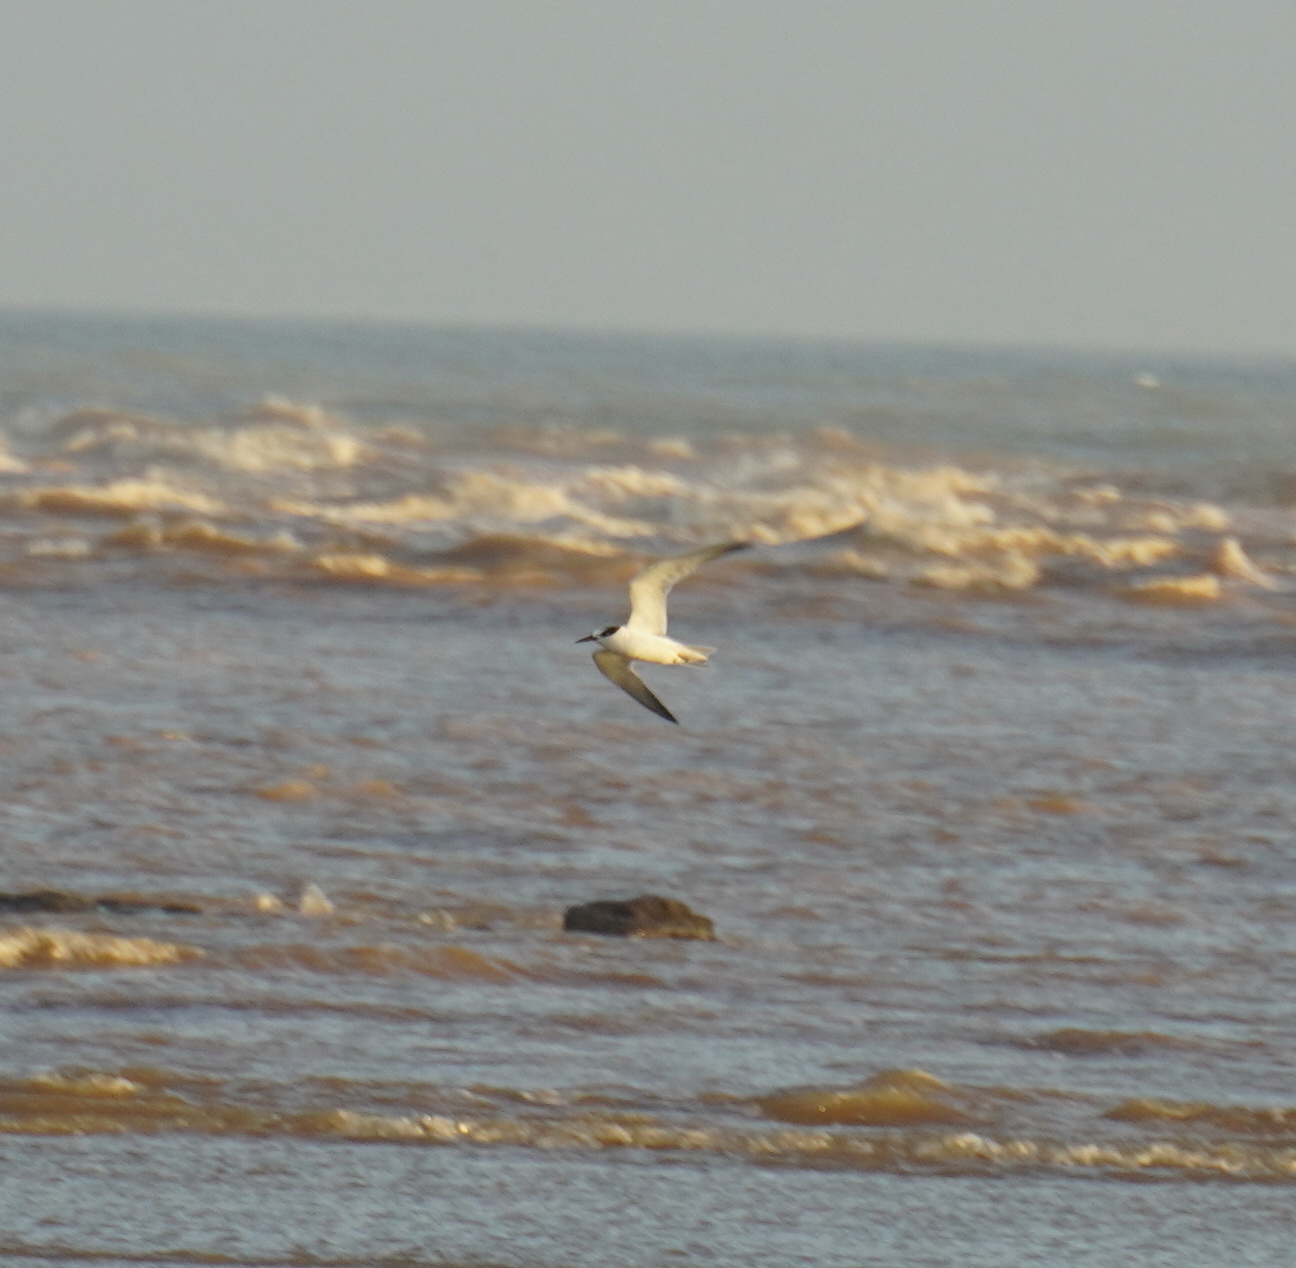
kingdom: Animalia
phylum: Chordata
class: Aves
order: Charadriiformes
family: Laridae
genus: Sterna
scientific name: Sterna hirundo
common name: Common tern
